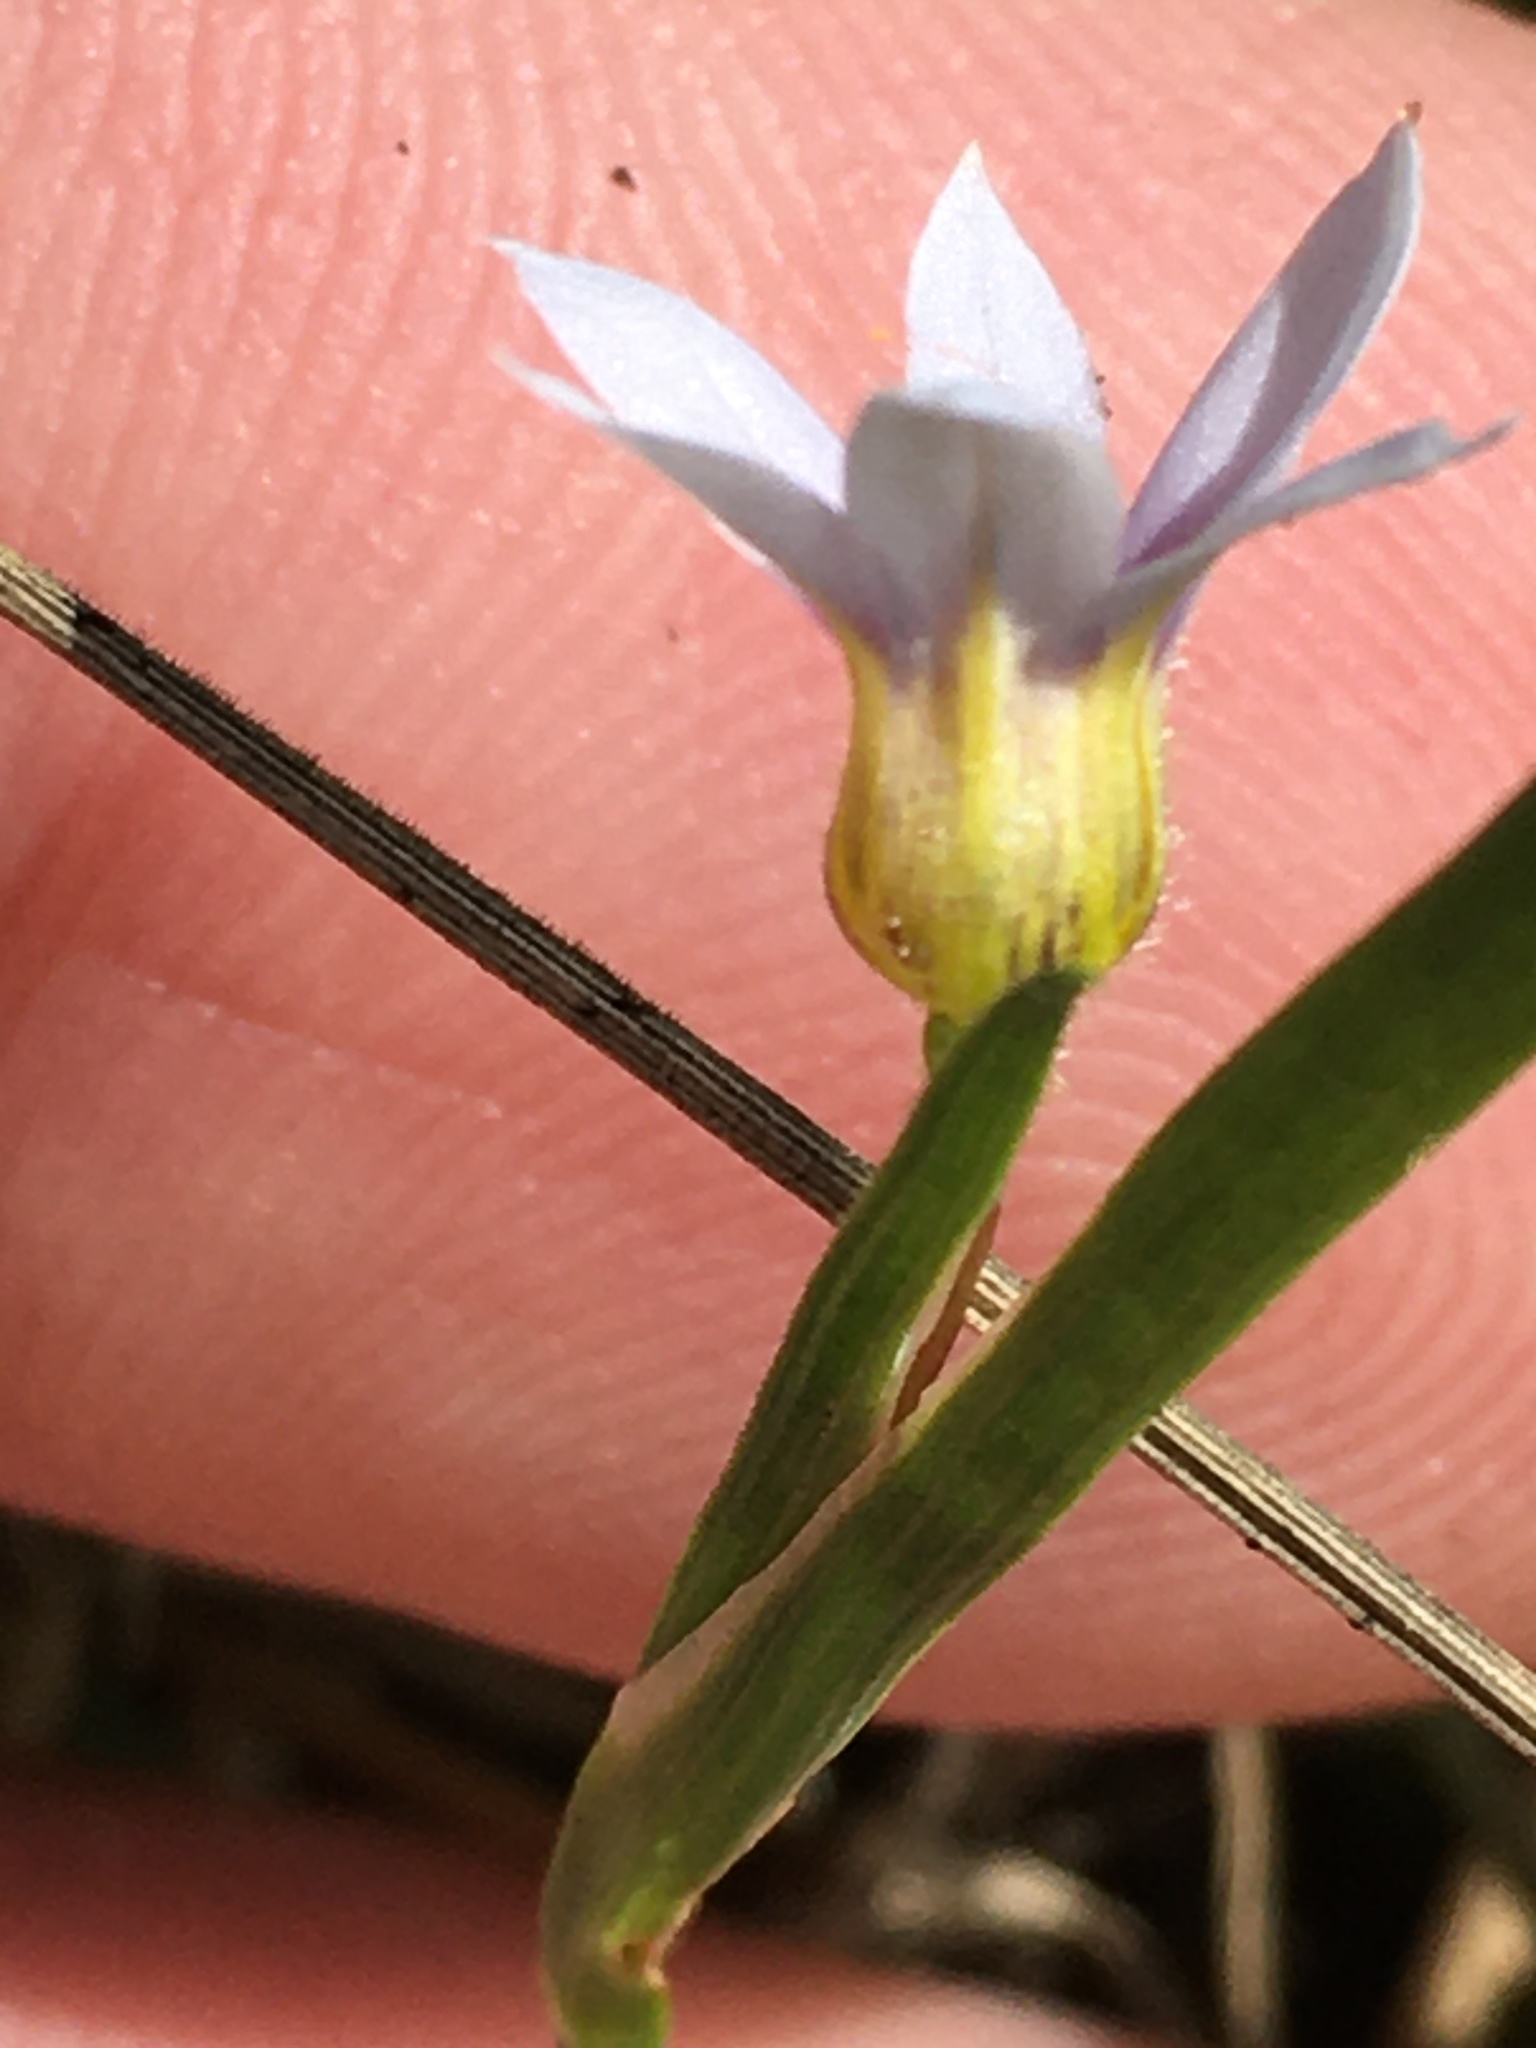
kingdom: Plantae
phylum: Tracheophyta
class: Liliopsida
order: Asparagales
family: Iridaceae
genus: Sisyrinchium
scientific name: Sisyrinchium micranthum
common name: Bermuda pigroot
